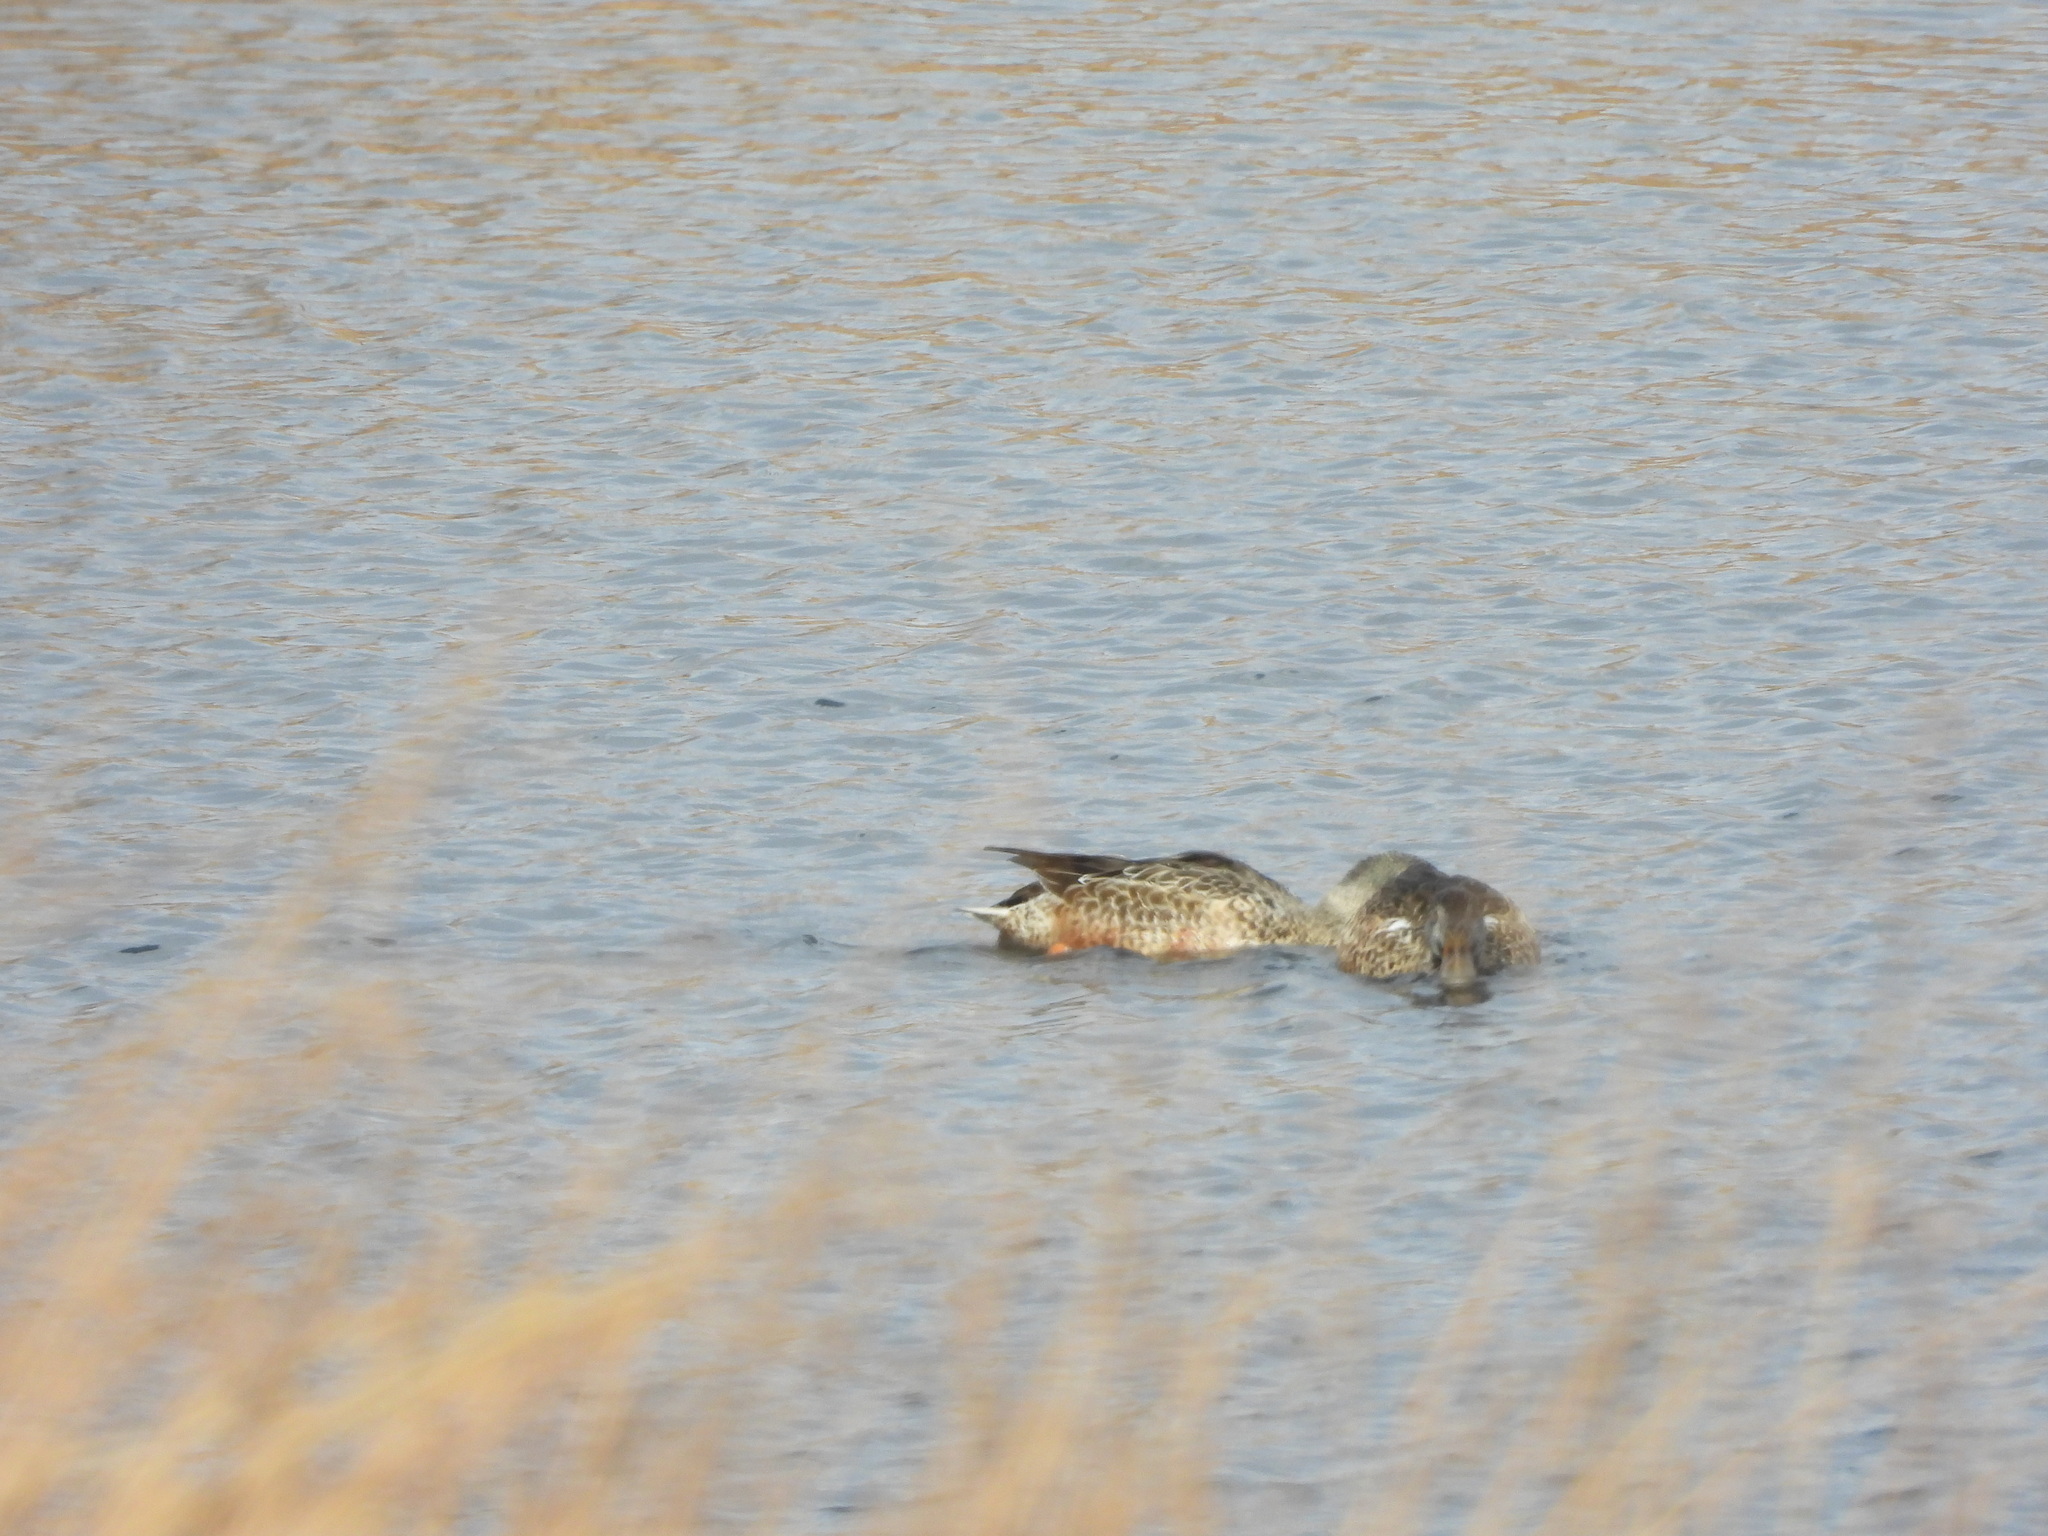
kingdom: Animalia
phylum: Chordata
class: Aves
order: Anseriformes
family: Anatidae
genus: Spatula
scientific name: Spatula clypeata
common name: Northern shoveler
